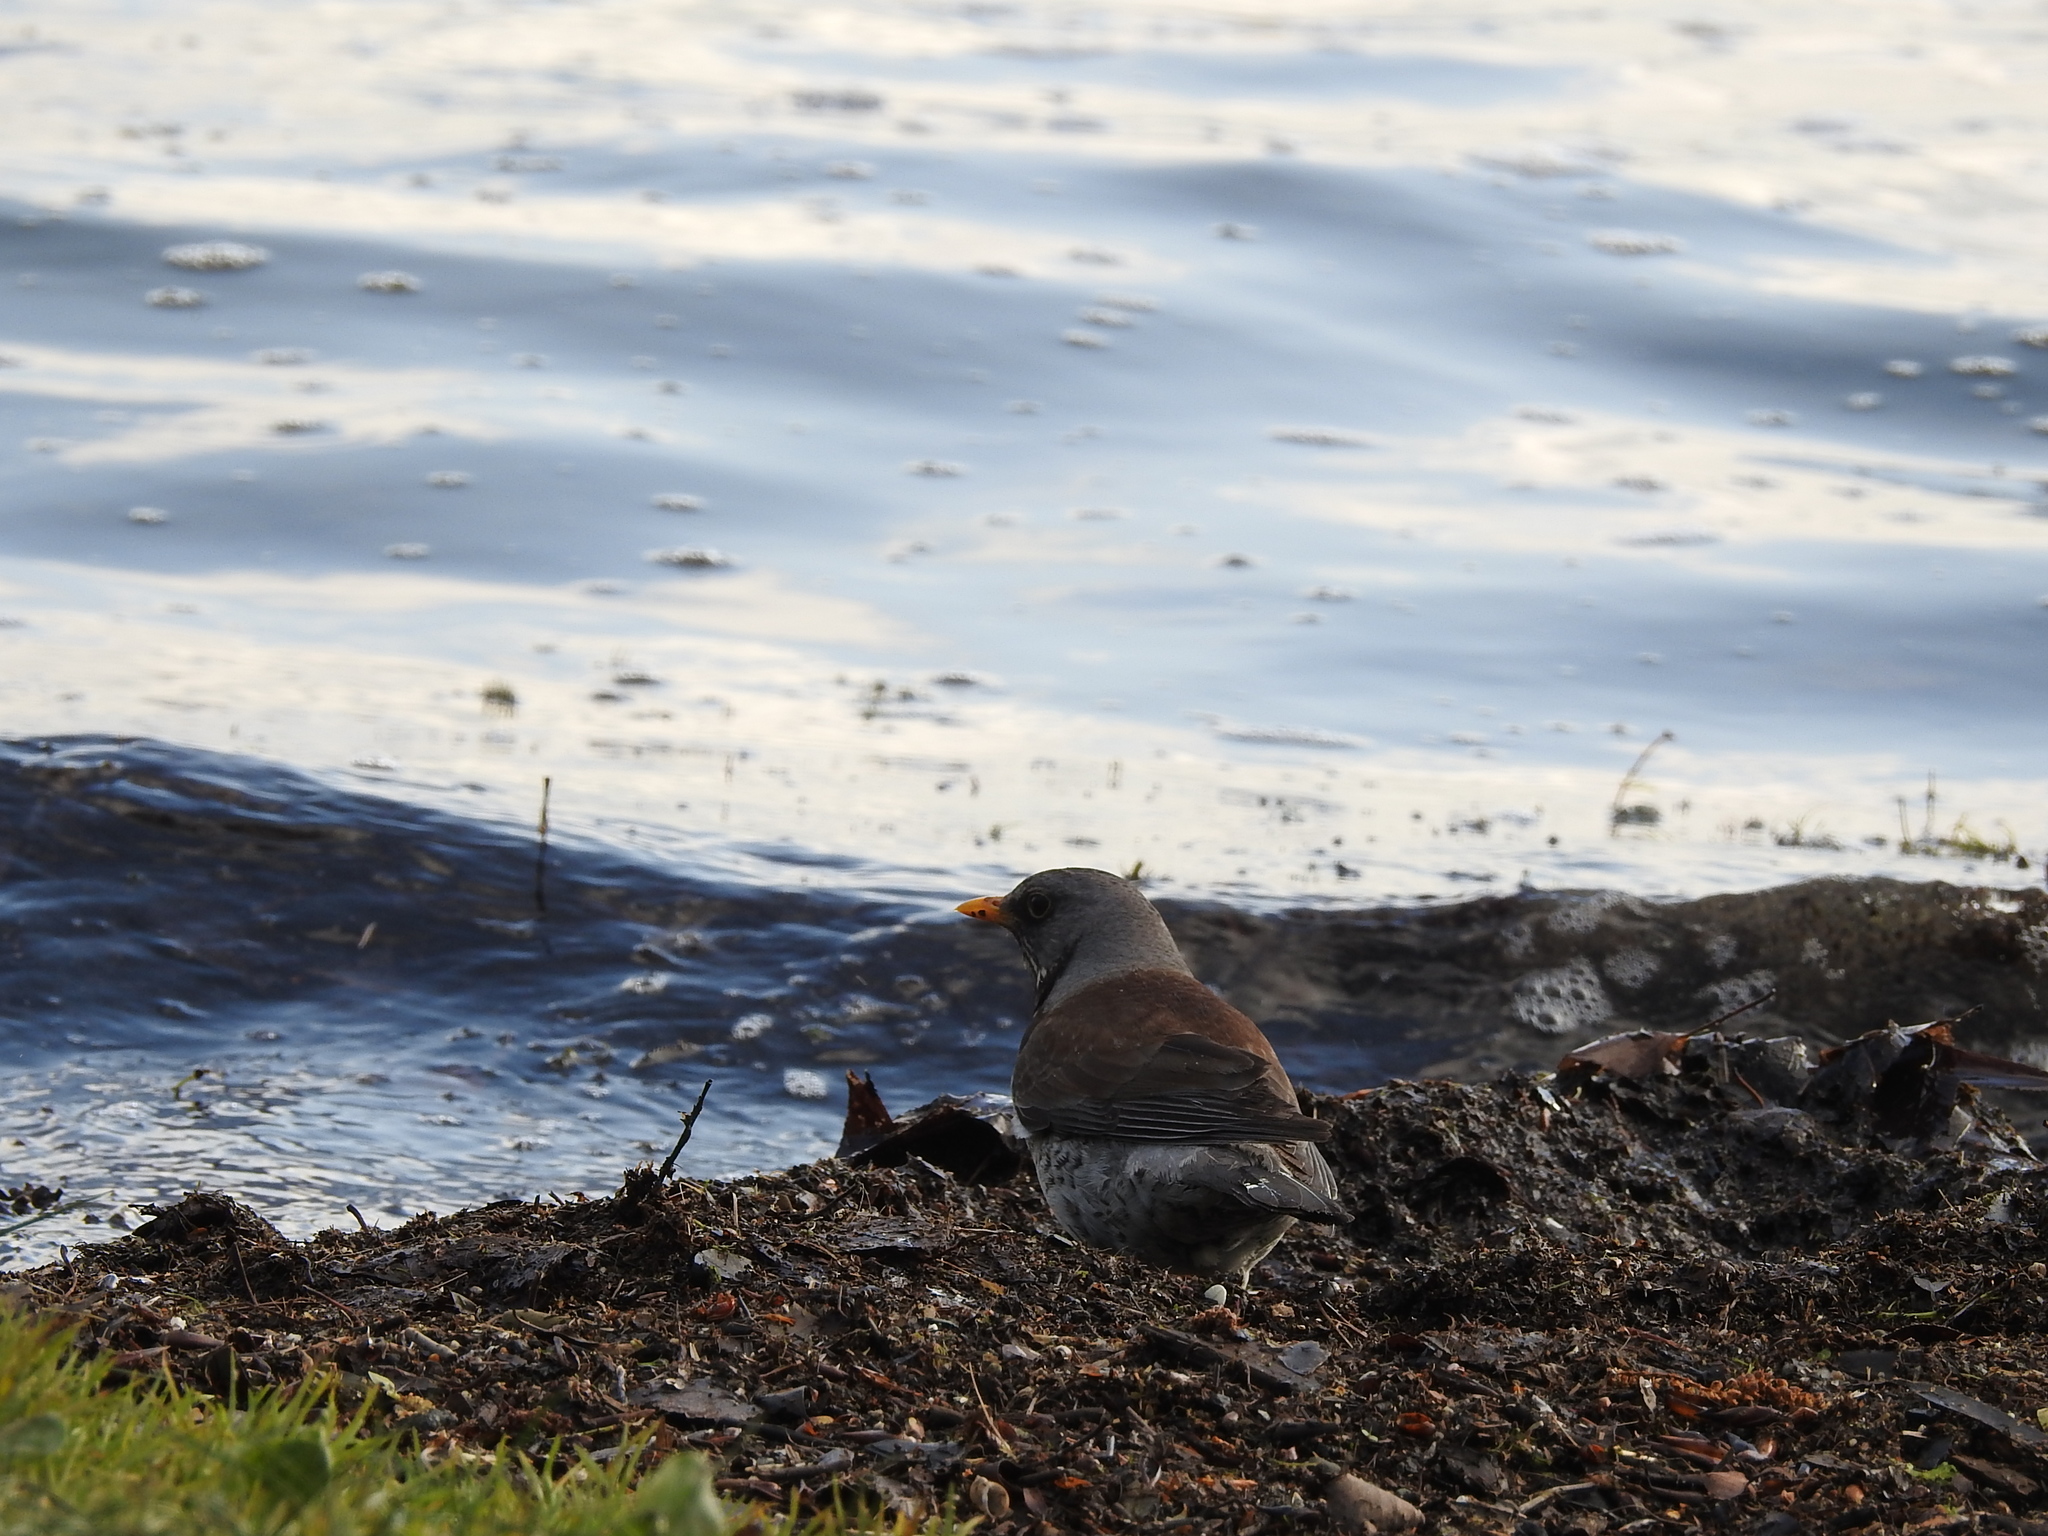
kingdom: Animalia
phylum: Chordata
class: Aves
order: Passeriformes
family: Turdidae
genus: Turdus
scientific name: Turdus pilaris
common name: Fieldfare
